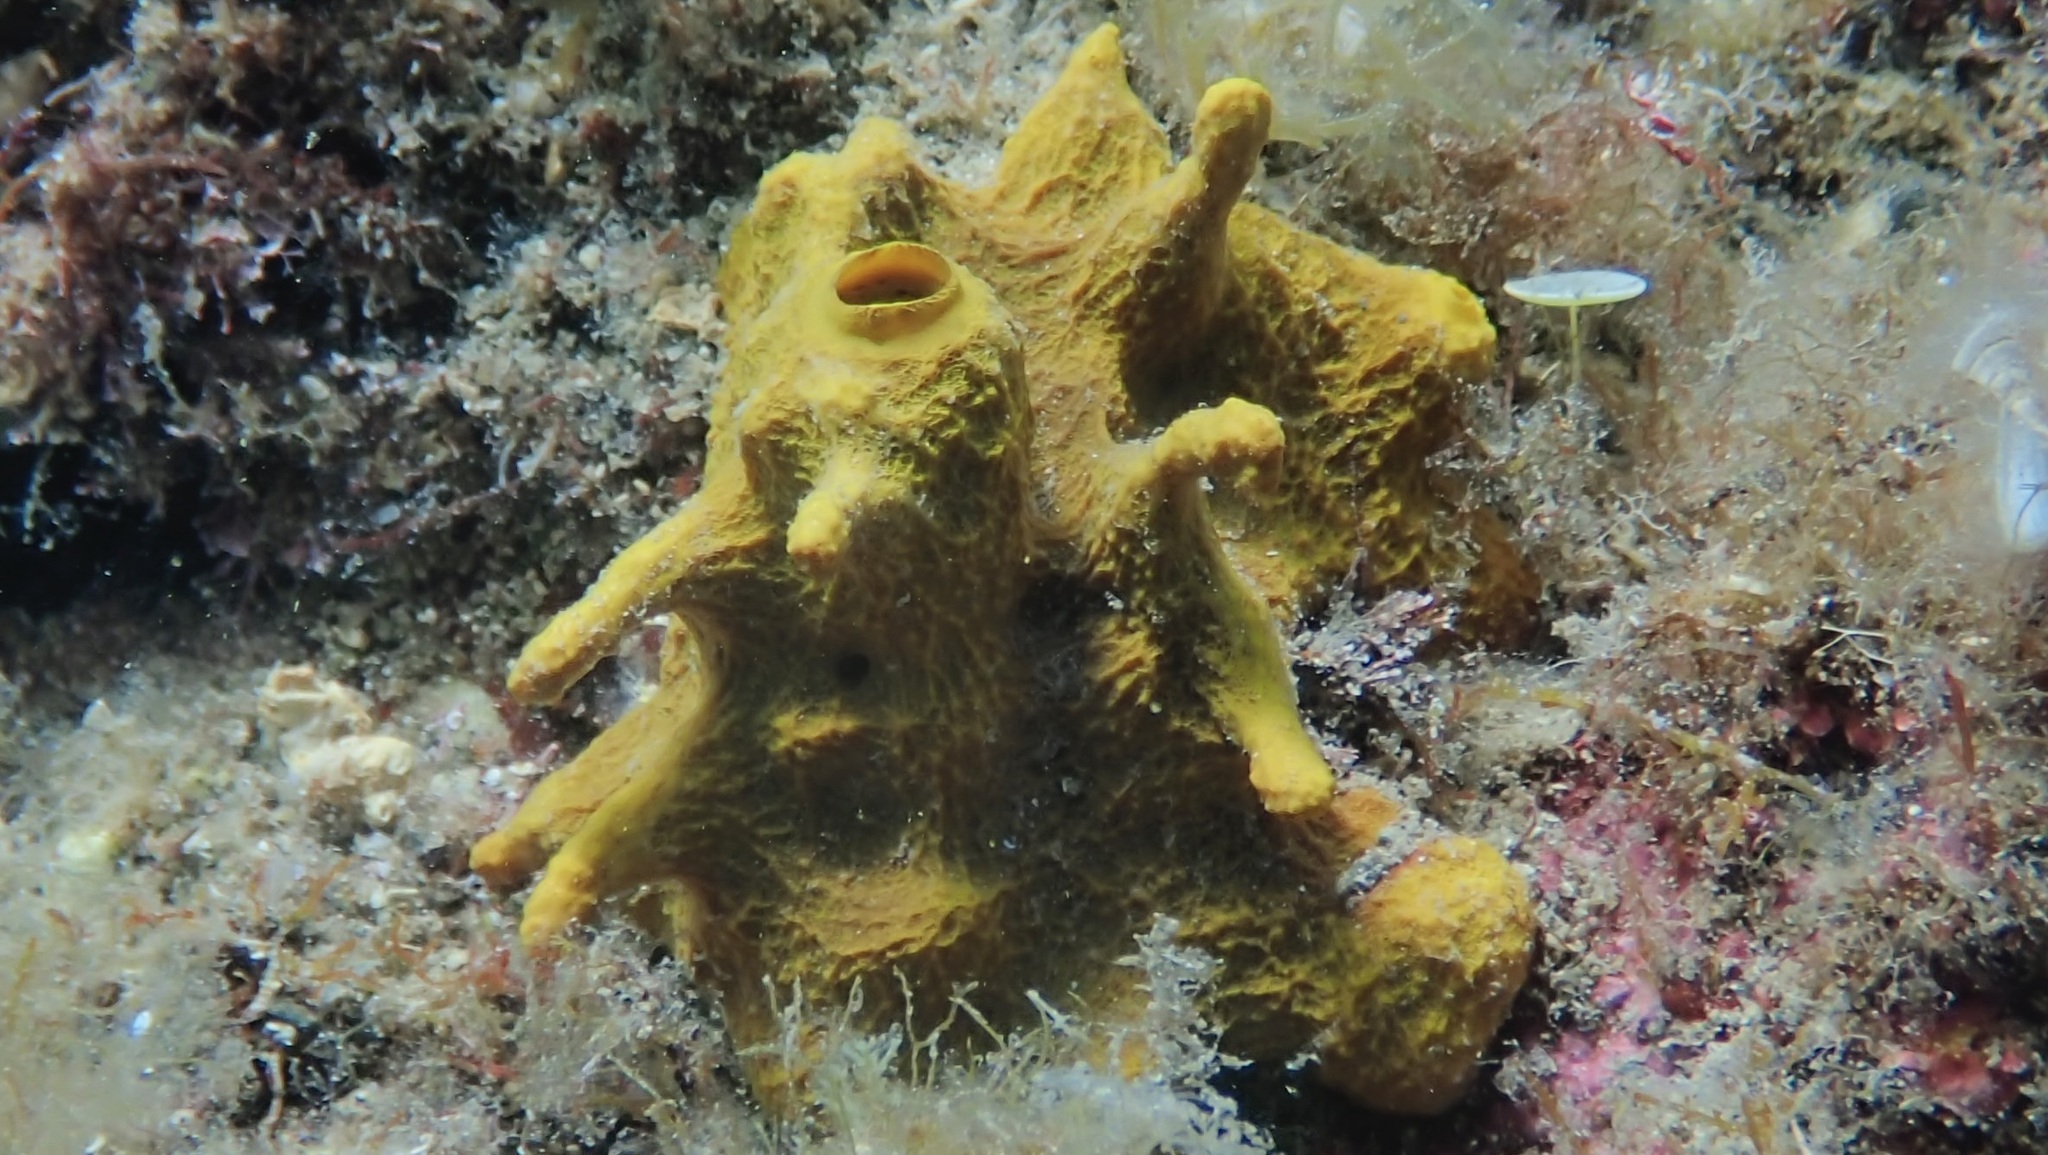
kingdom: Animalia
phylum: Porifera
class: Demospongiae
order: Verongiida
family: Aplysinidae
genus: Aplysina
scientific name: Aplysina aerophoba
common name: Aureate sponge
